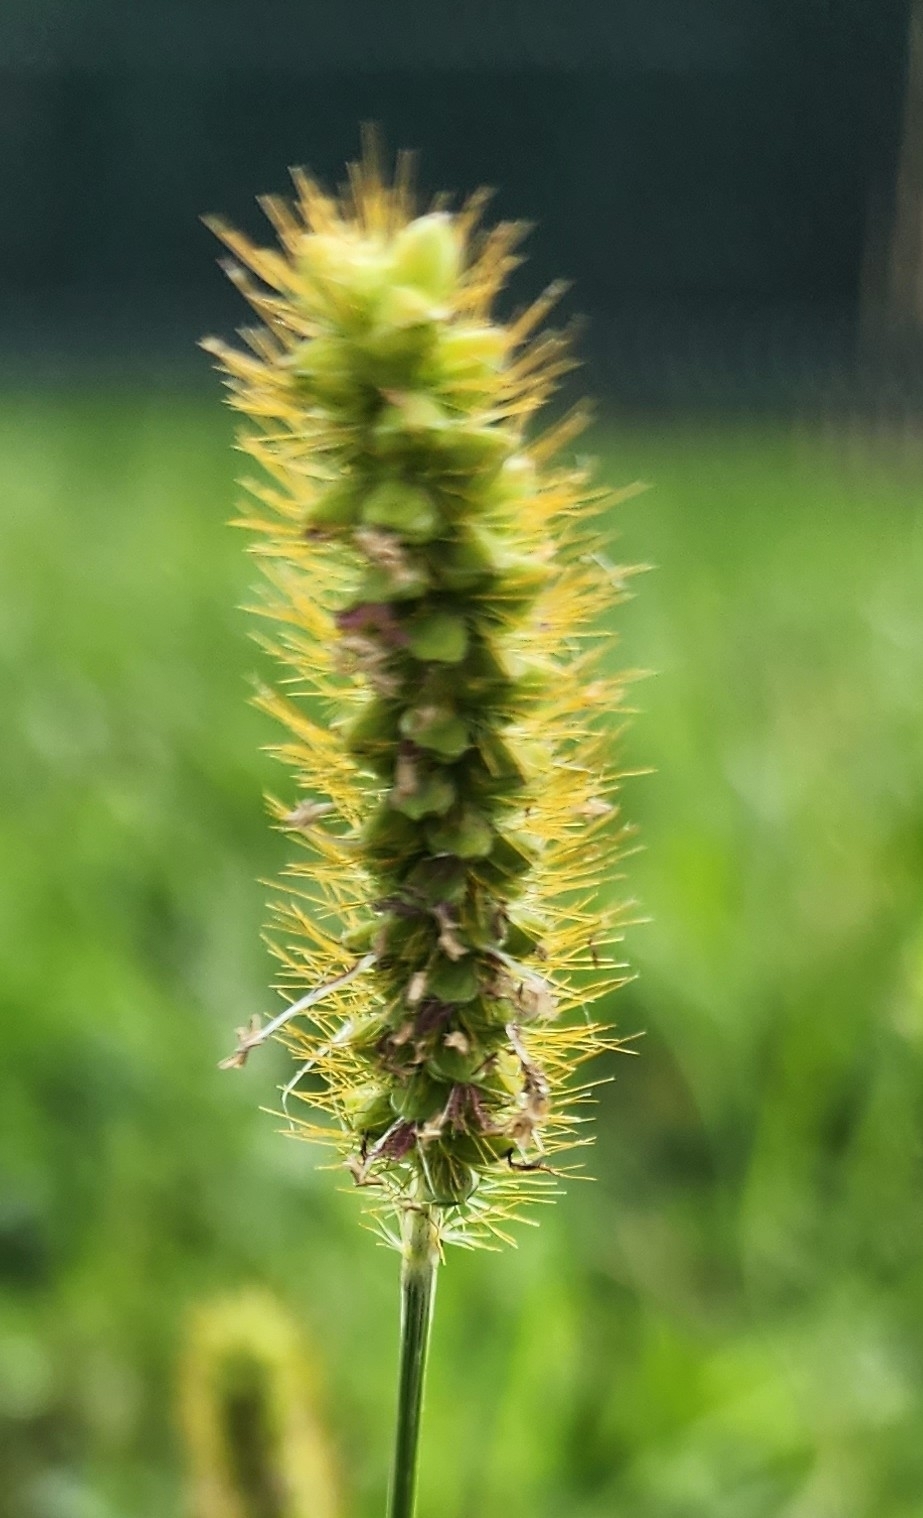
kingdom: Plantae
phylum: Tracheophyta
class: Liliopsida
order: Poales
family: Poaceae
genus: Setaria
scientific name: Setaria pumila
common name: Yellow bristle-grass
